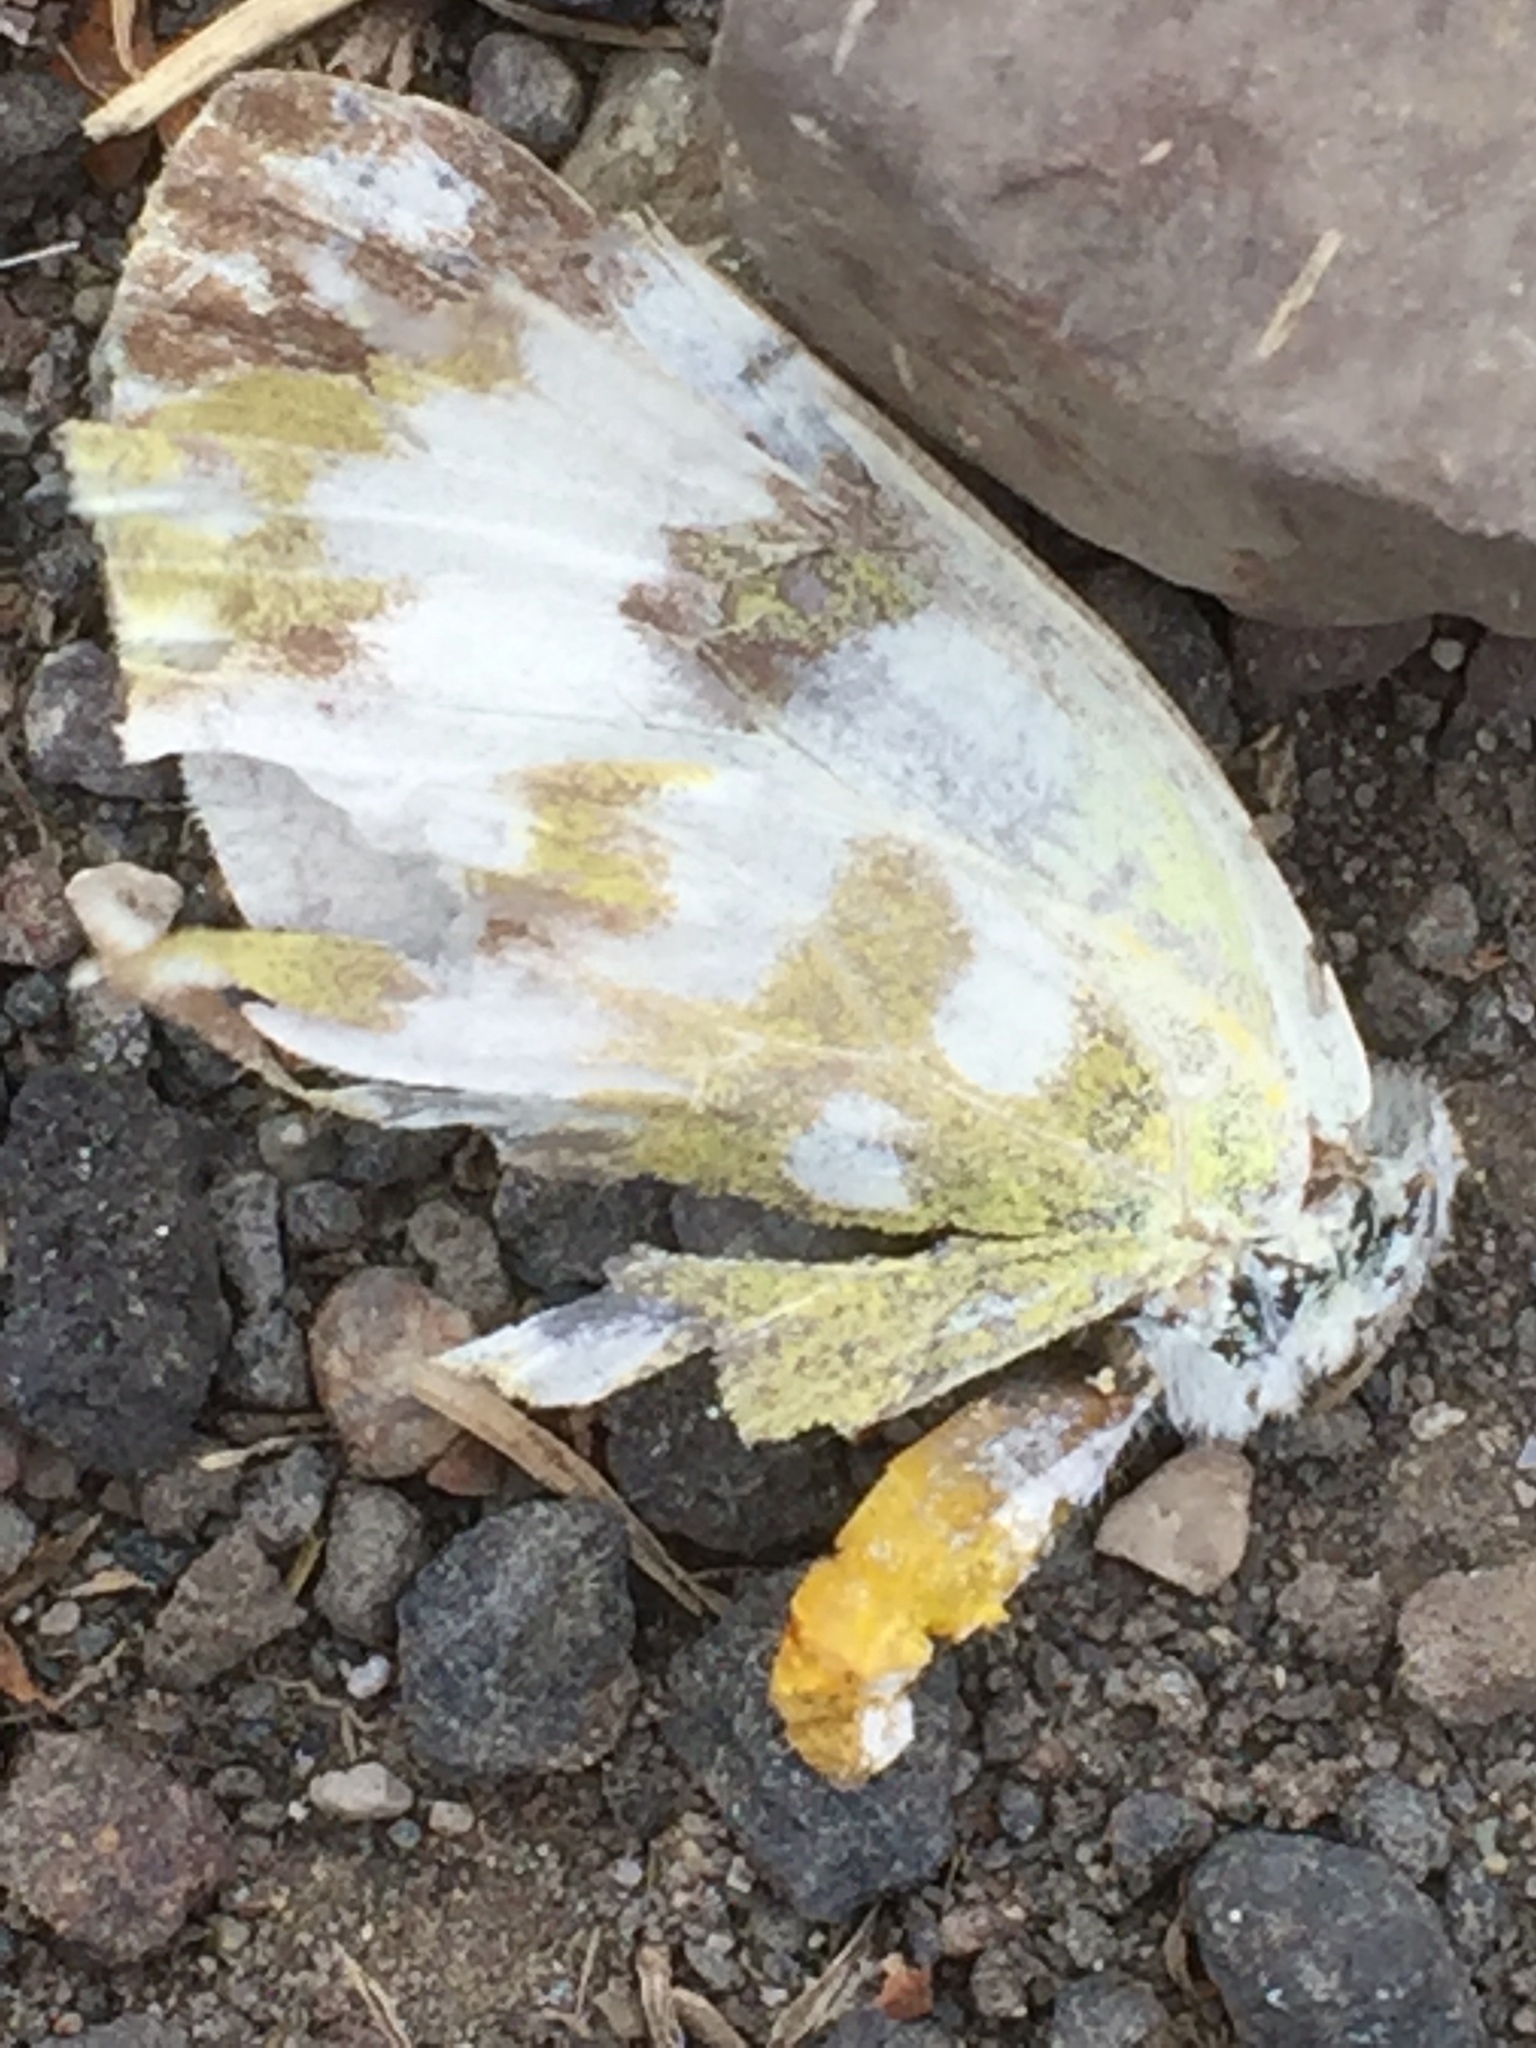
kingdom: Animalia
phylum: Arthropoda
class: Insecta
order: Lepidoptera
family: Pieridae
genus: Pontia
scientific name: Pontia edusa
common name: Eastern bath white
